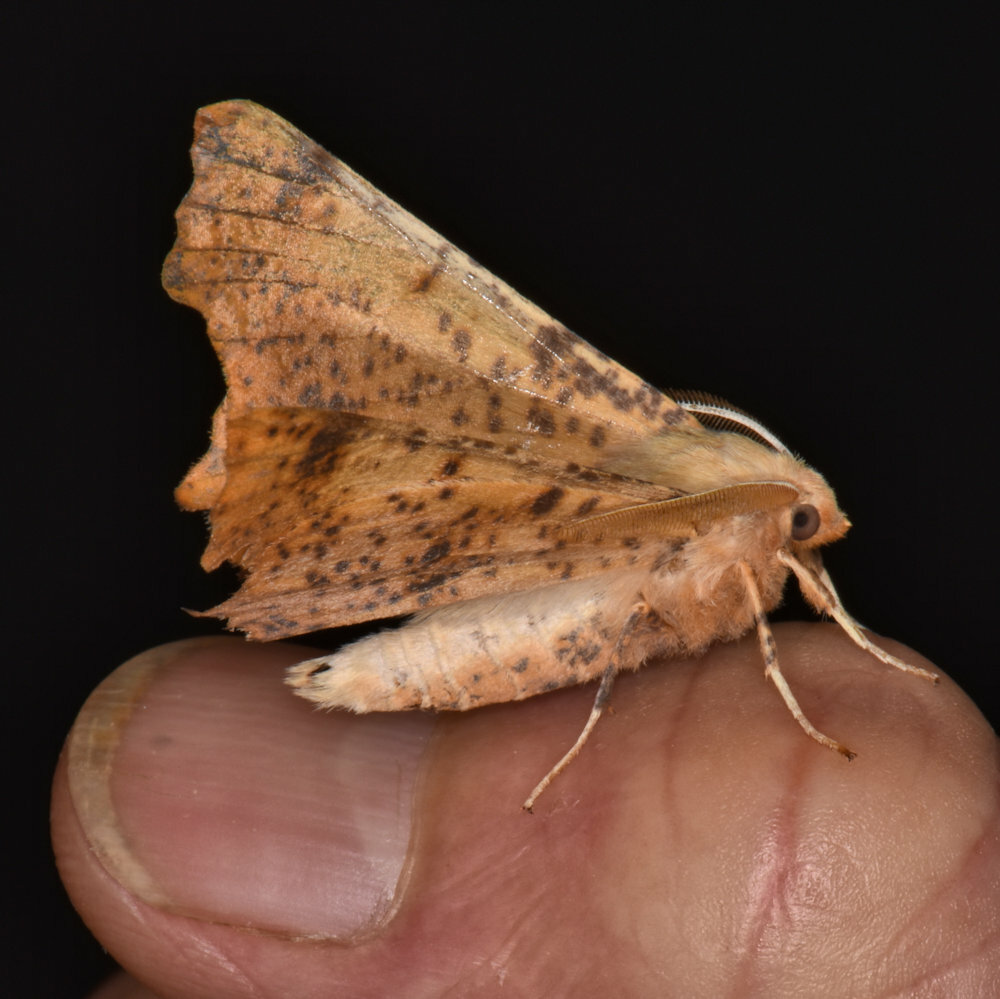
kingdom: Animalia
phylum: Arthropoda
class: Insecta
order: Lepidoptera
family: Geometridae
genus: Prochoerodes
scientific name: Prochoerodes lineola
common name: Large maple spanworm
